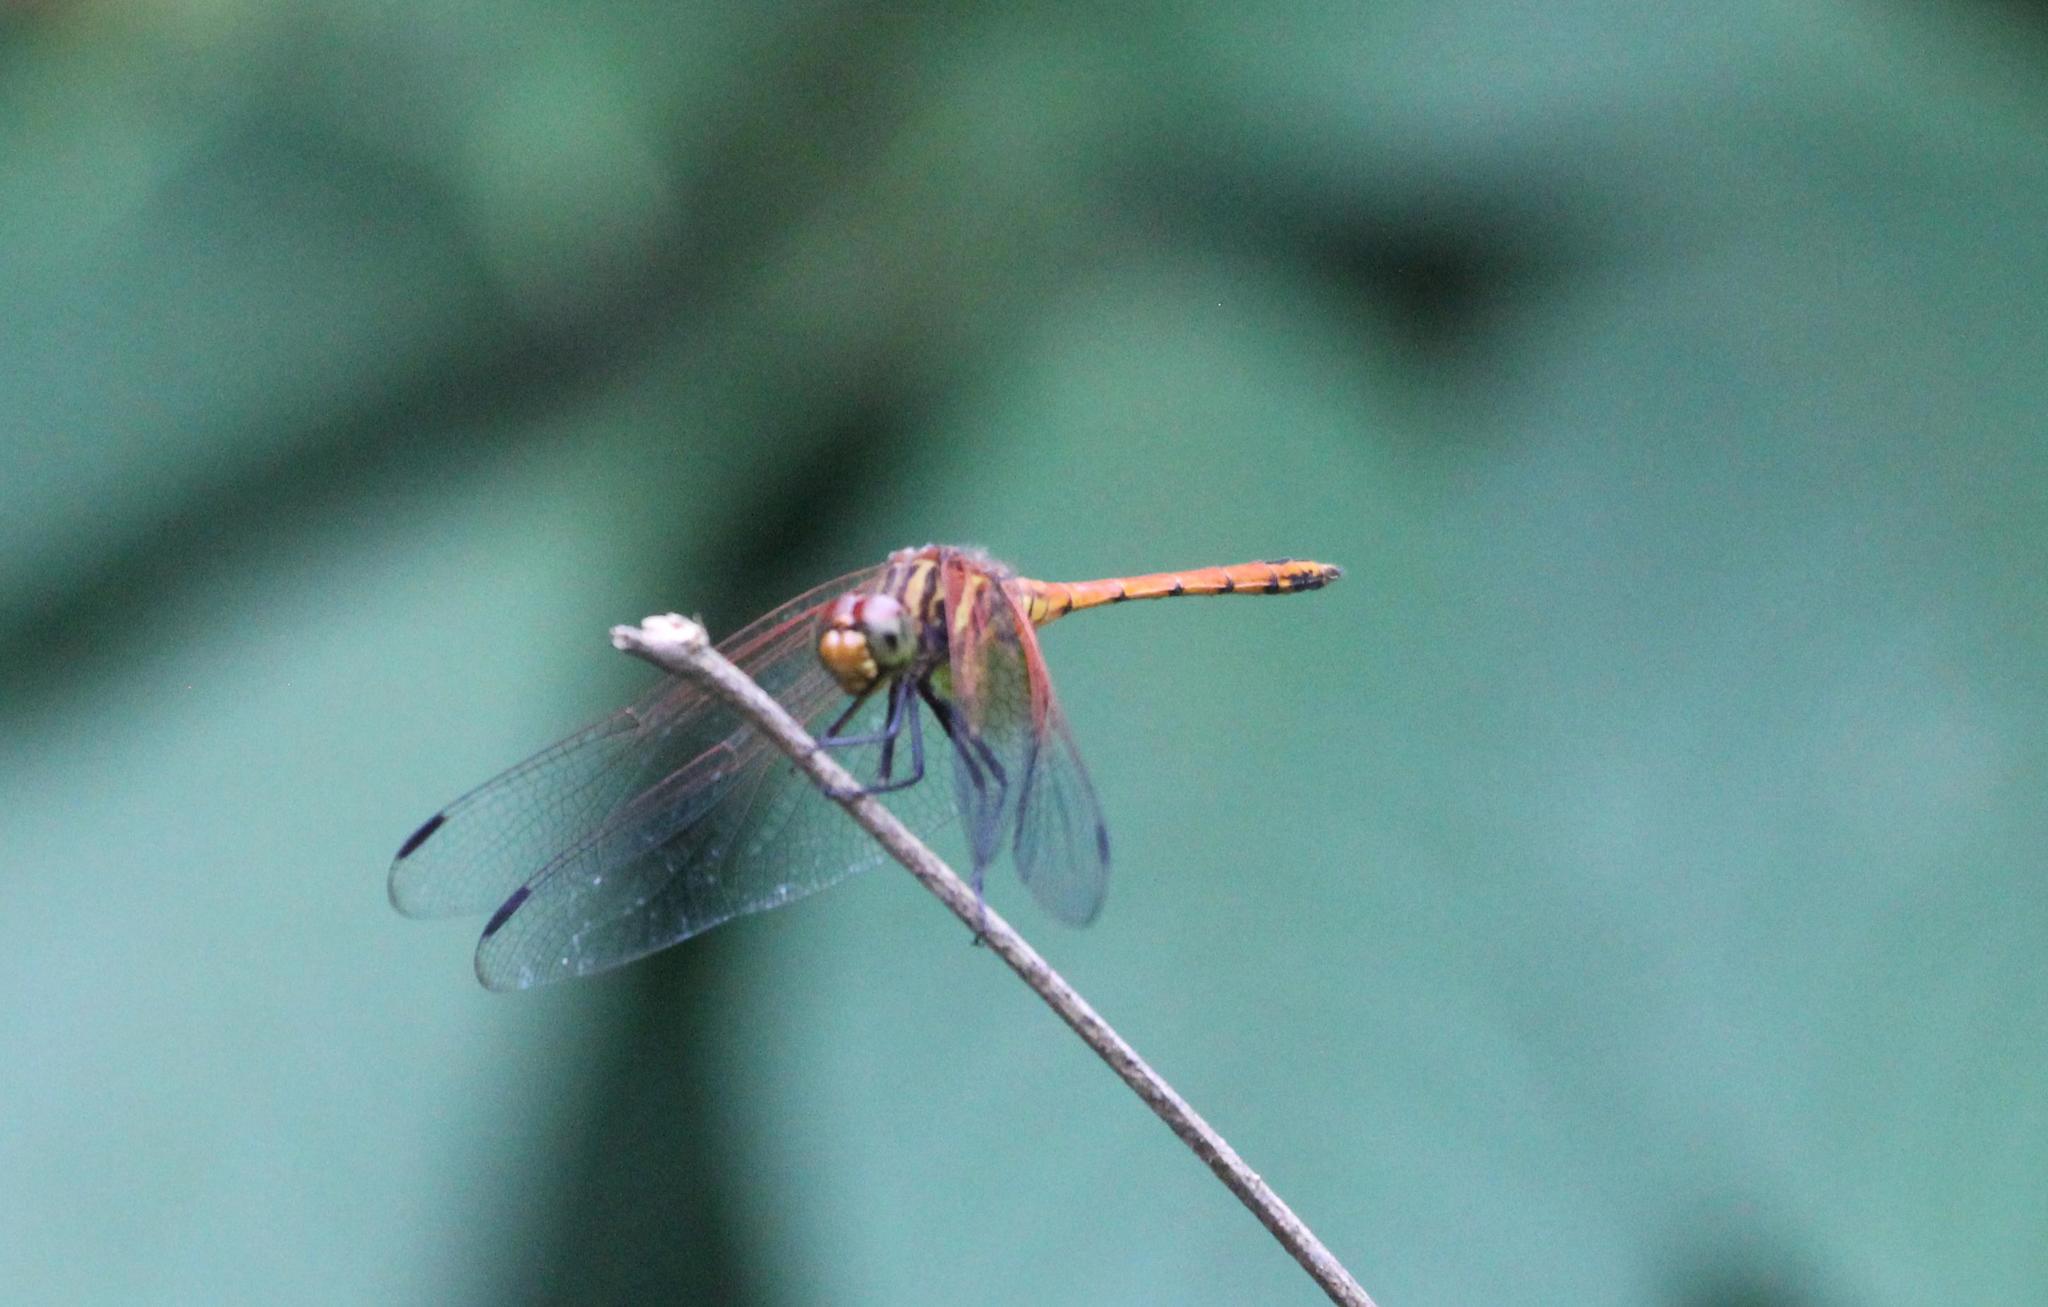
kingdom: Animalia
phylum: Arthropoda
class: Insecta
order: Odonata
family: Libellulidae
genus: Dythemis
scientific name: Dythemis rufinervis
